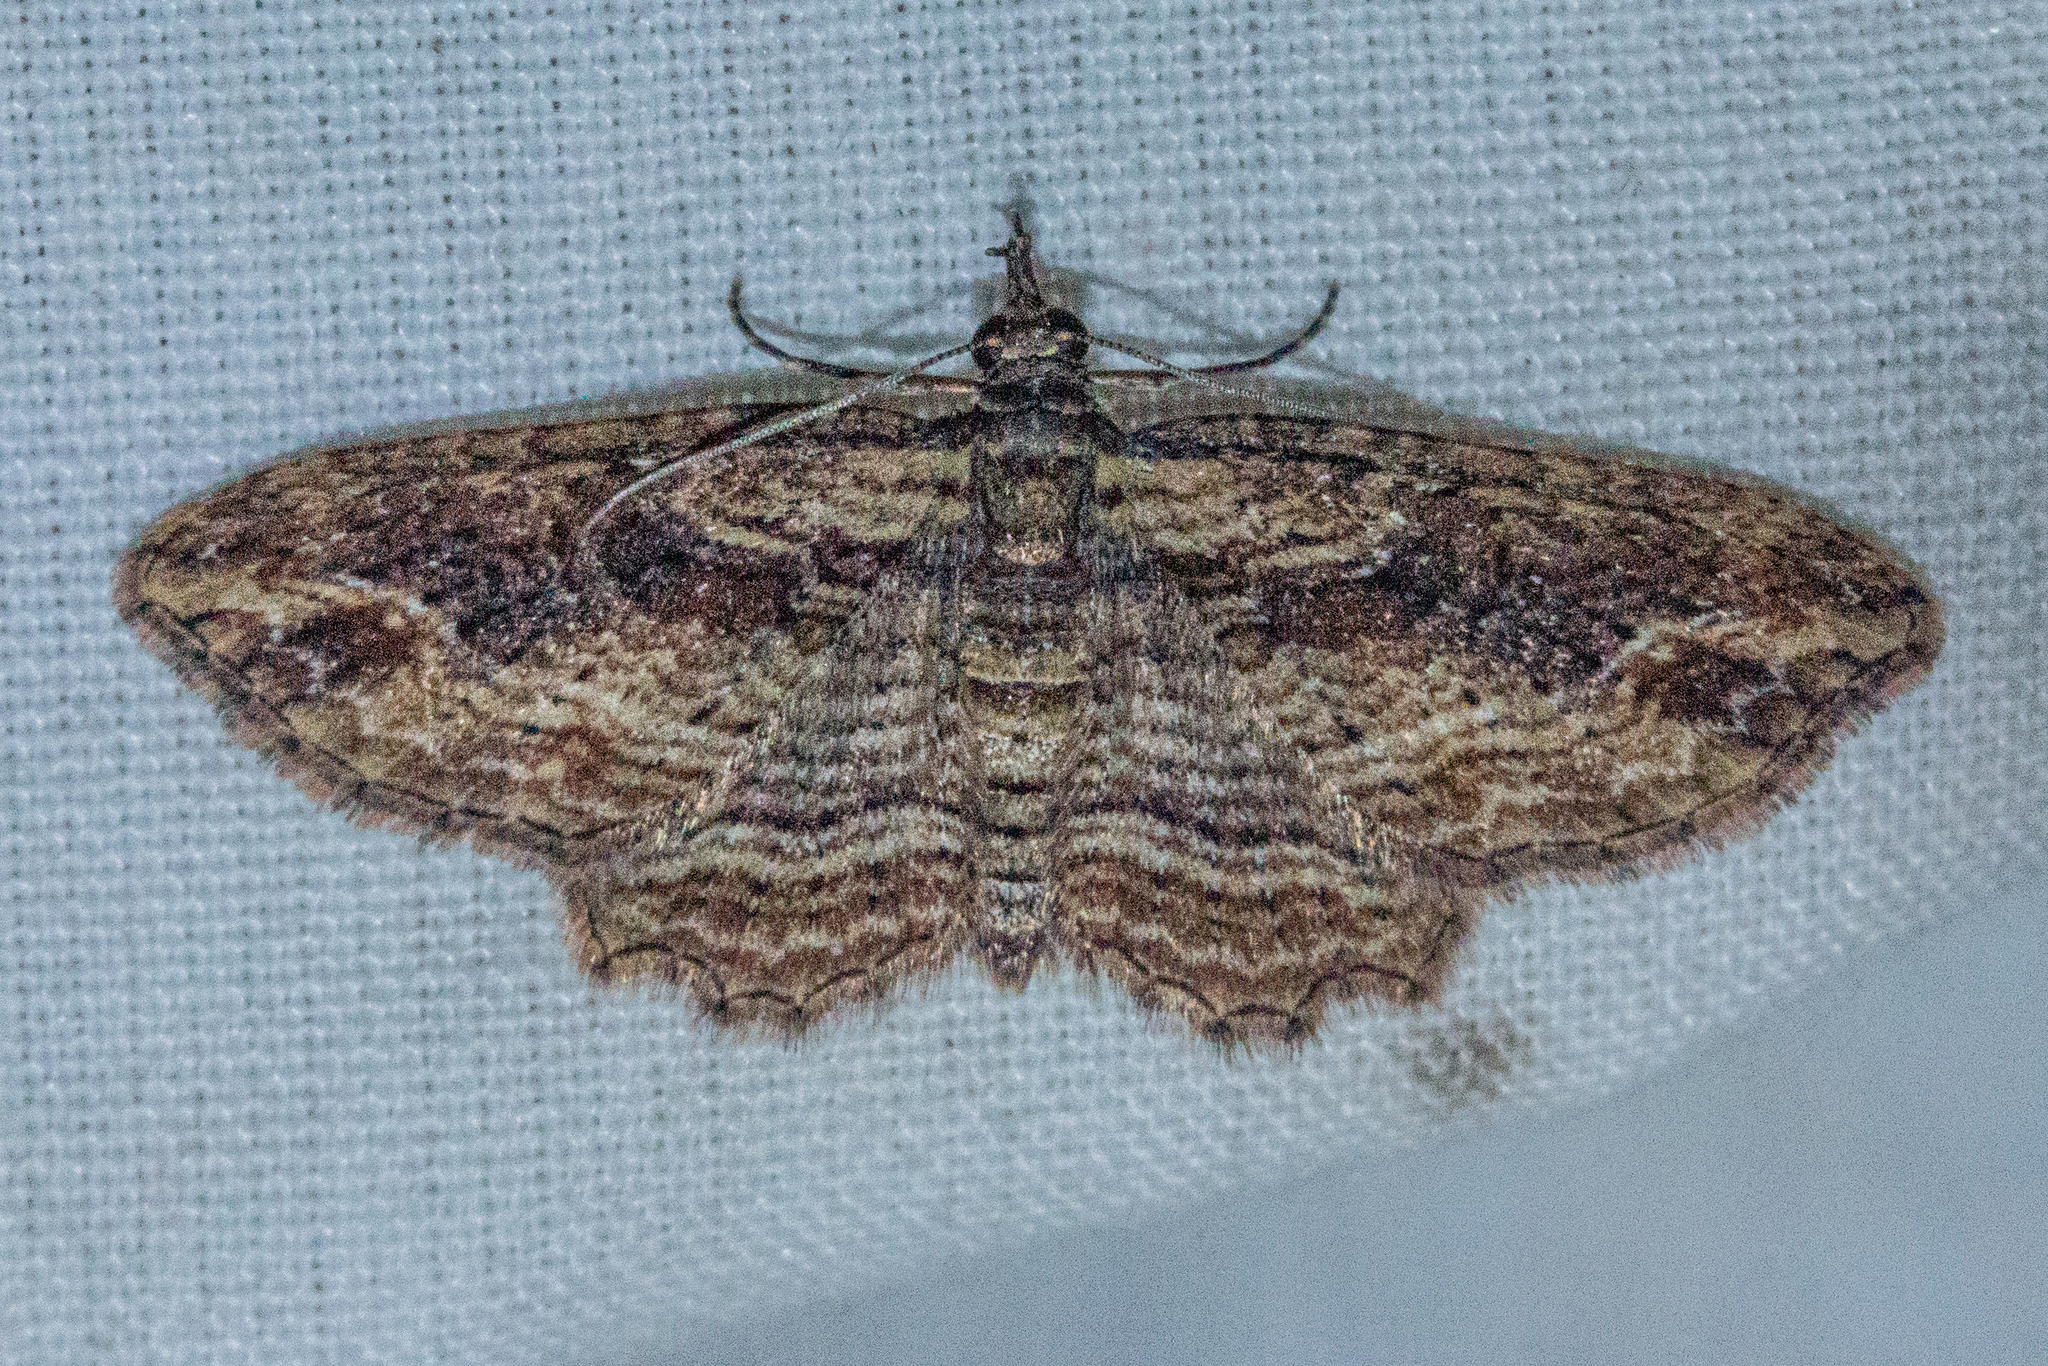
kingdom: Animalia
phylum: Arthropoda
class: Insecta
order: Lepidoptera
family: Geometridae
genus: Chloroclystis
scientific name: Chloroclystis filata
